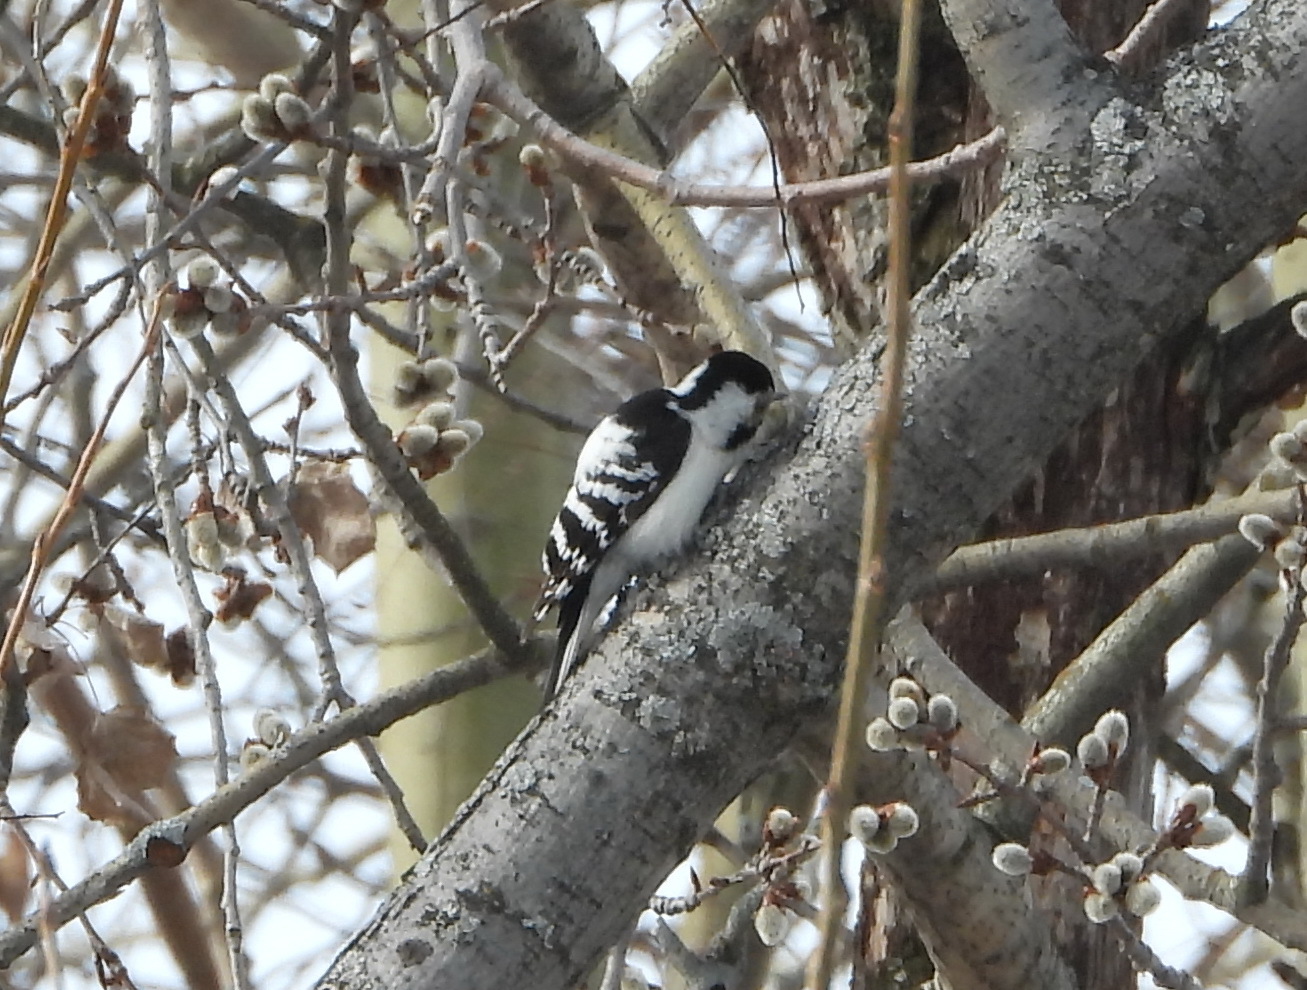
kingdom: Animalia
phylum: Chordata
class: Aves
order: Piciformes
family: Picidae
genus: Dryobates
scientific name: Dryobates minor
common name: Lesser spotted woodpecker
